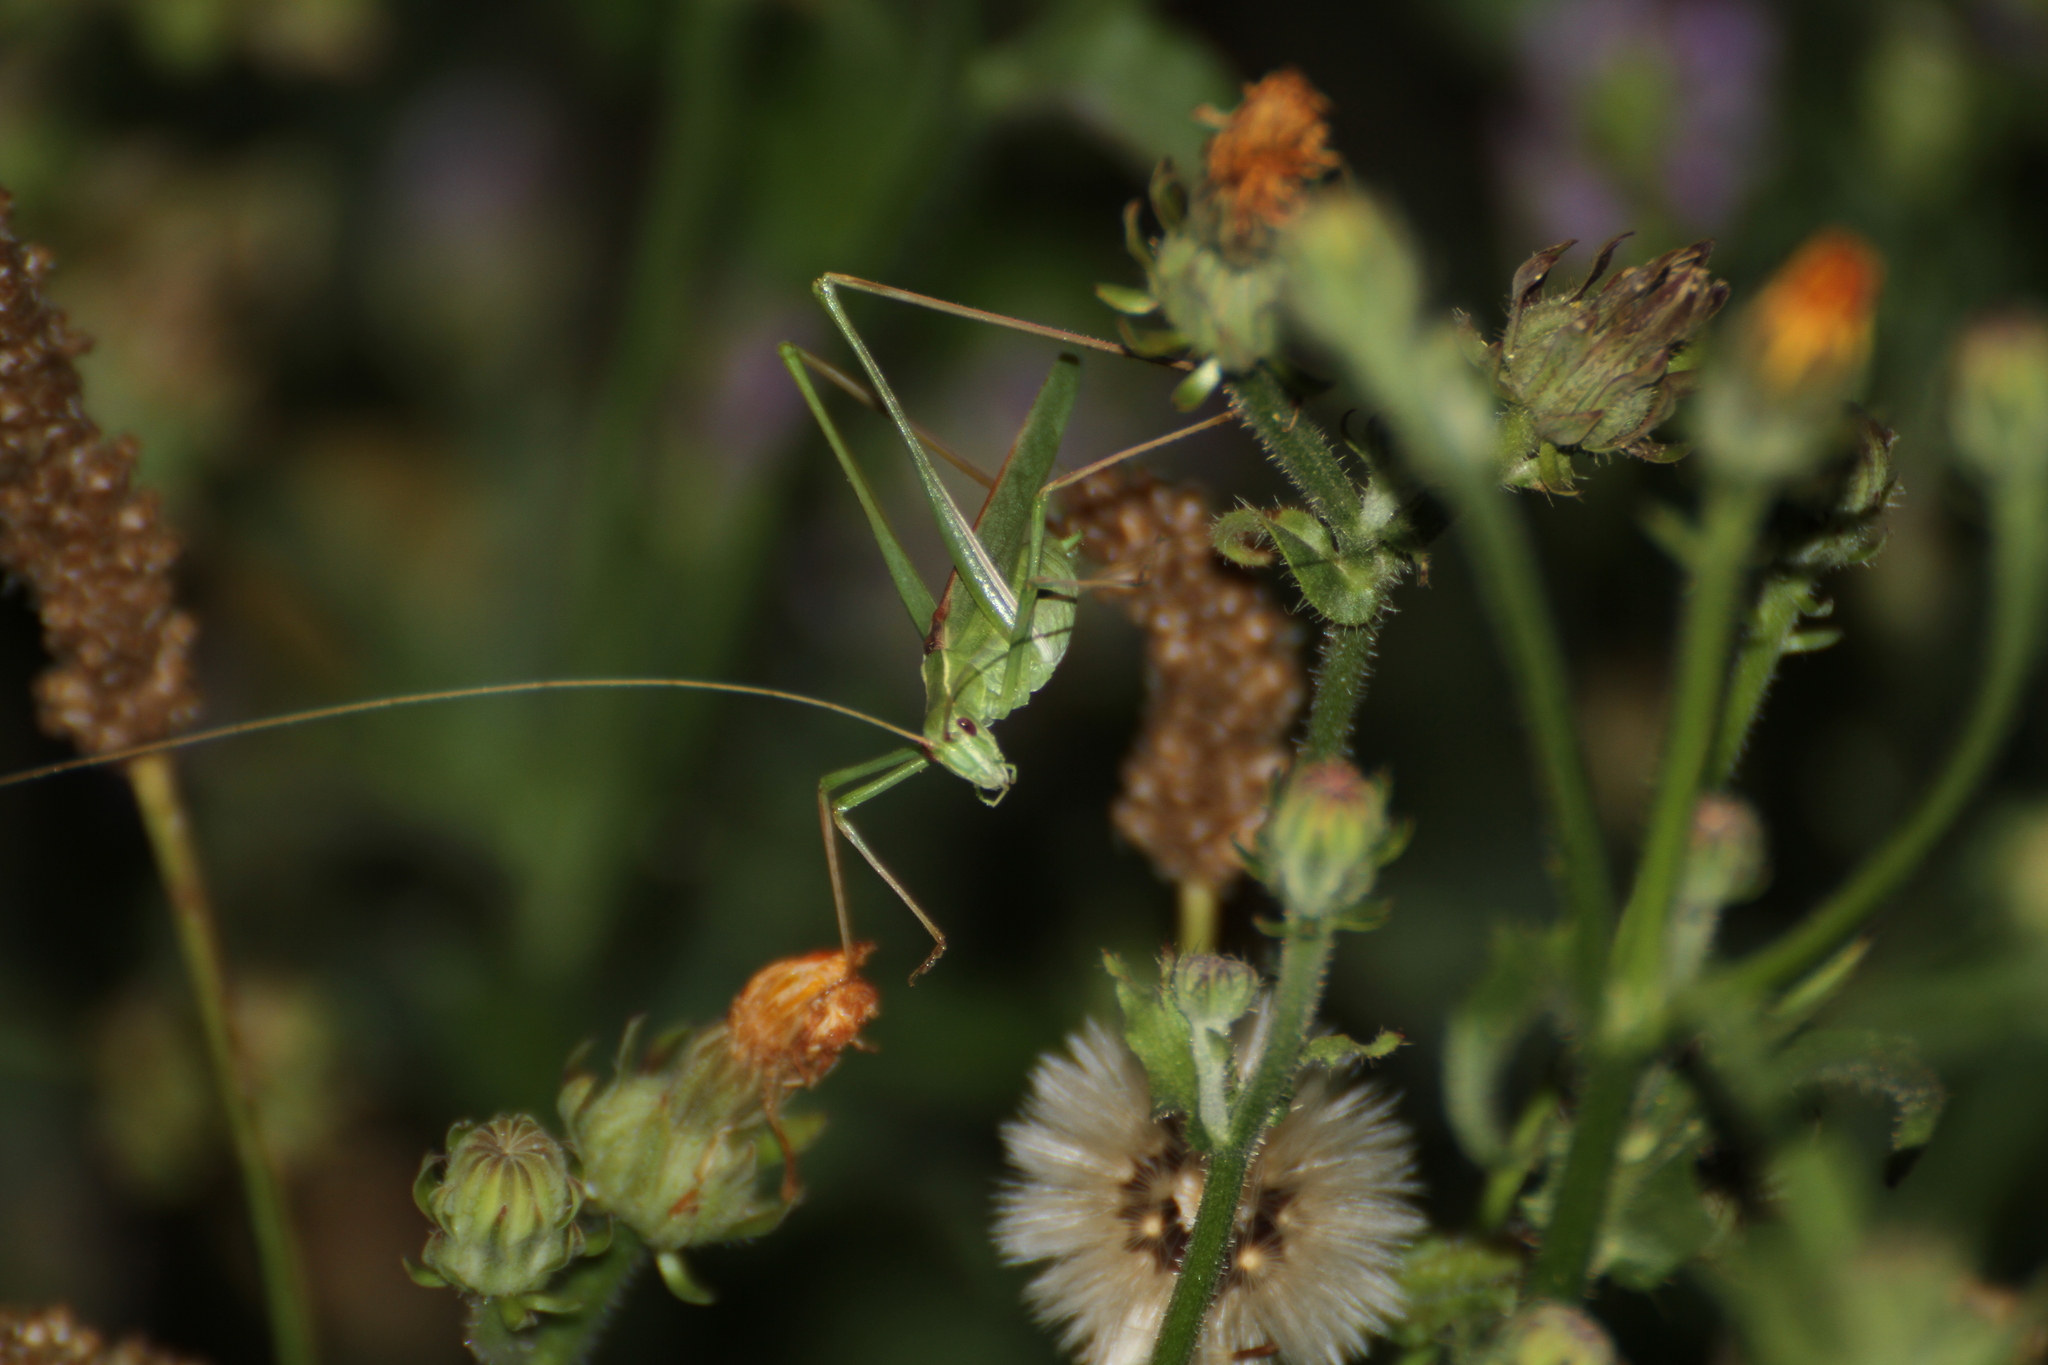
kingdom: Animalia
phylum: Arthropoda
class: Insecta
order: Orthoptera
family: Tettigoniidae
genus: Tylopsis
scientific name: Tylopsis lilifolia
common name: Lily bush-cricket
